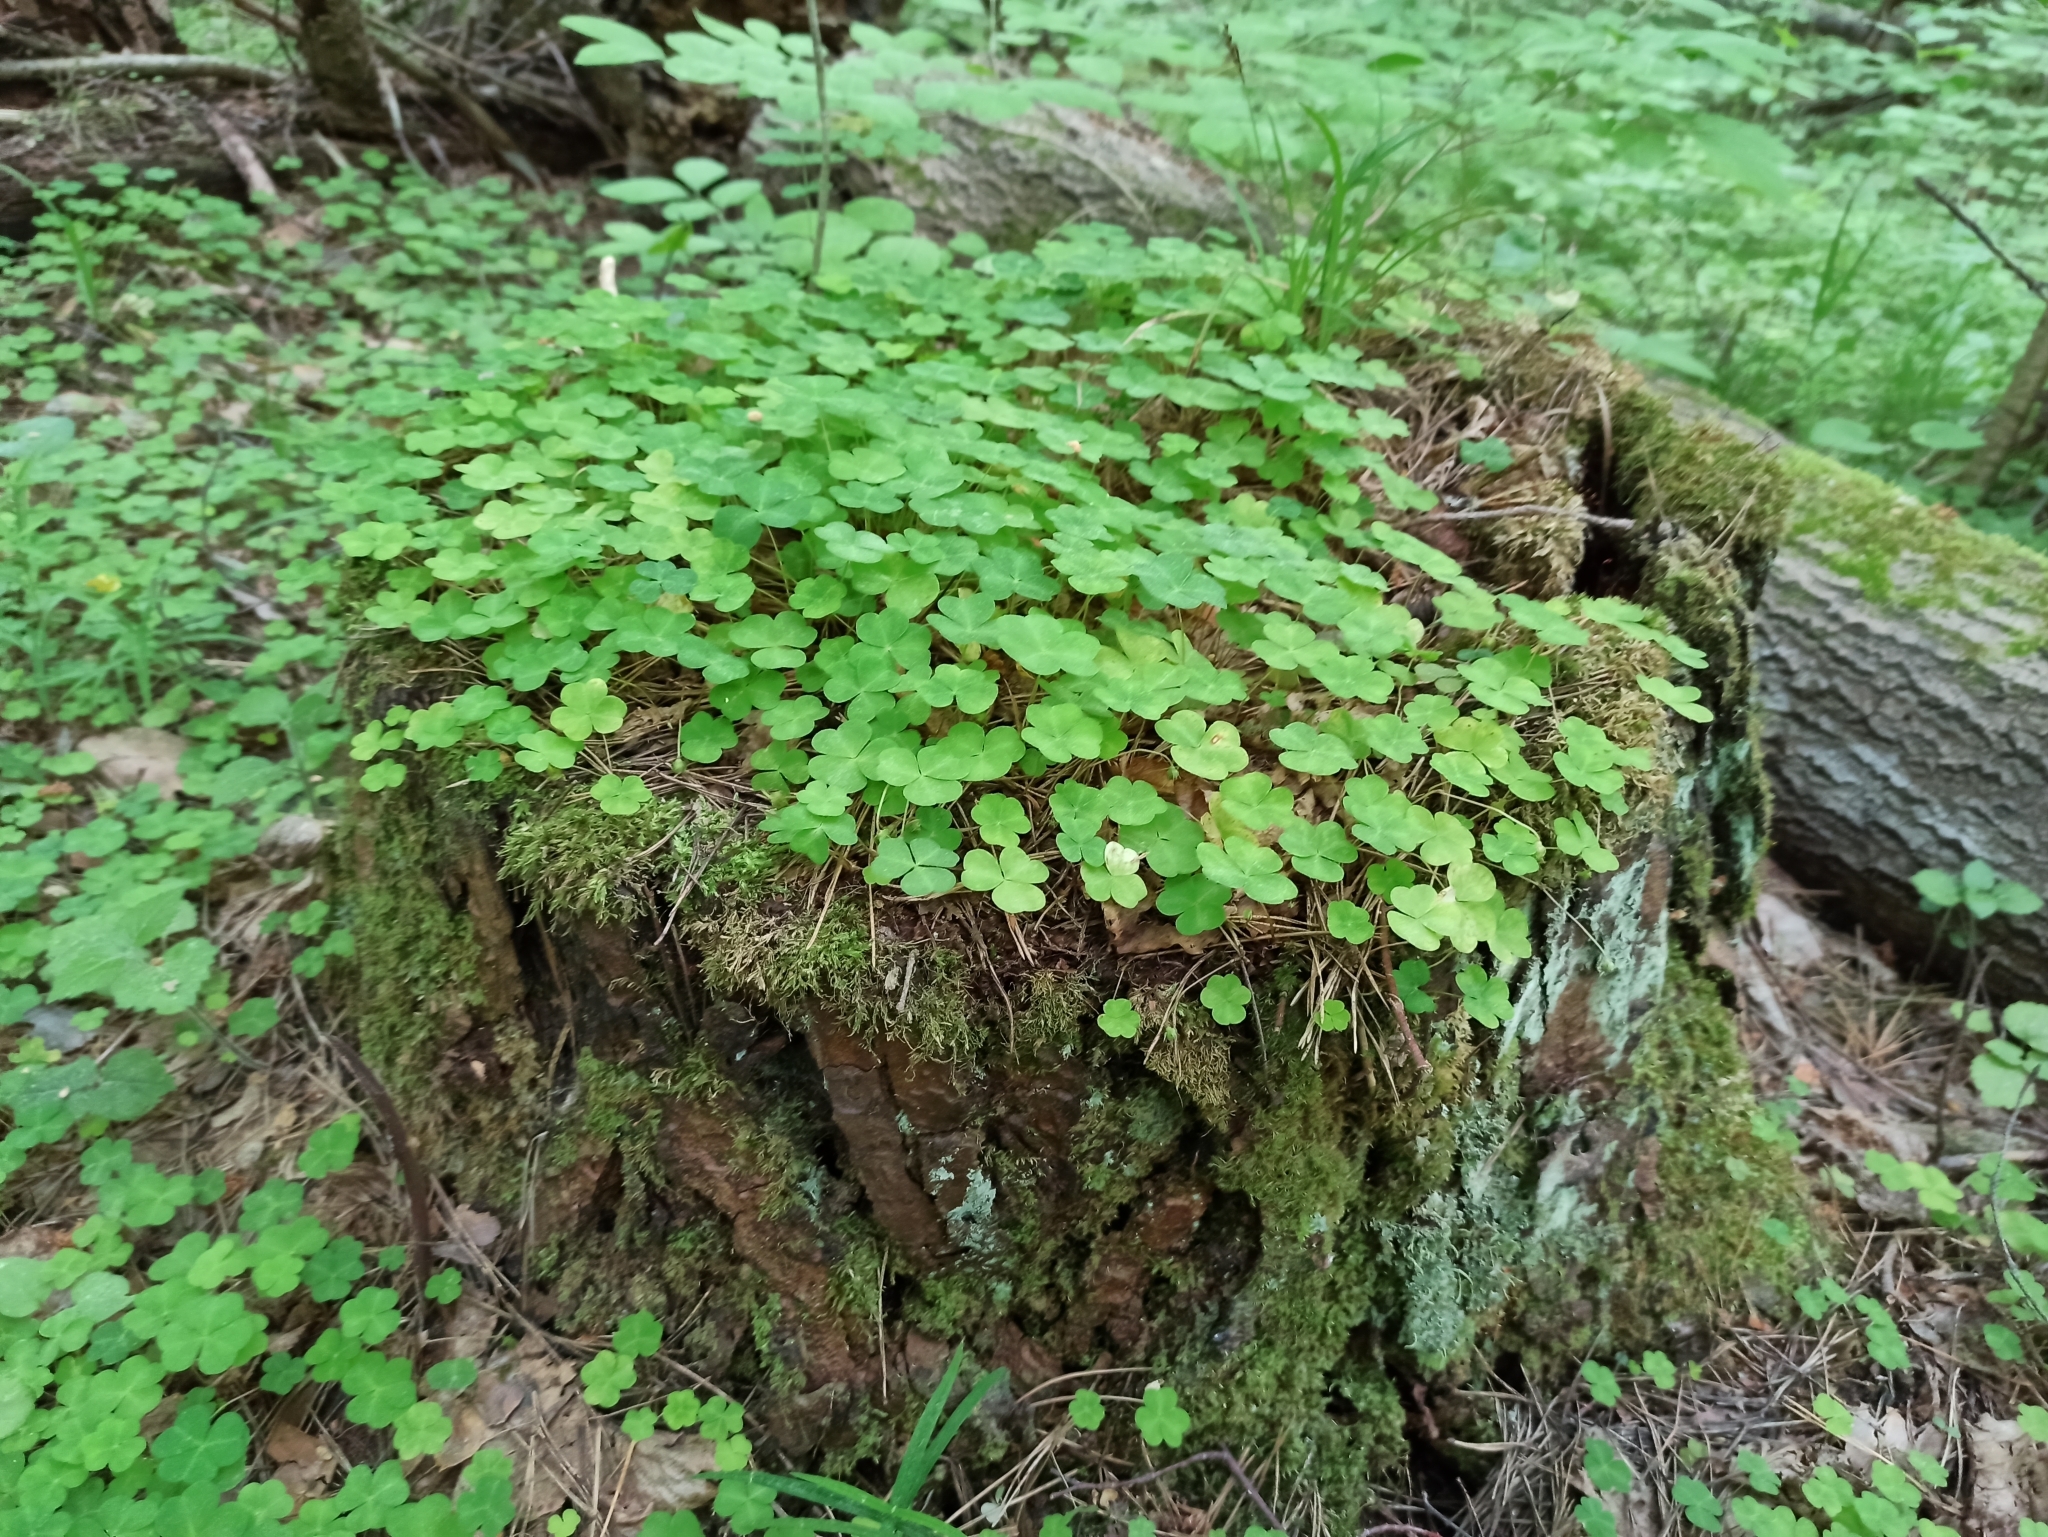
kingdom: Plantae
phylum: Tracheophyta
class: Magnoliopsida
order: Oxalidales
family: Oxalidaceae
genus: Oxalis
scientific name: Oxalis acetosella
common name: Wood-sorrel
